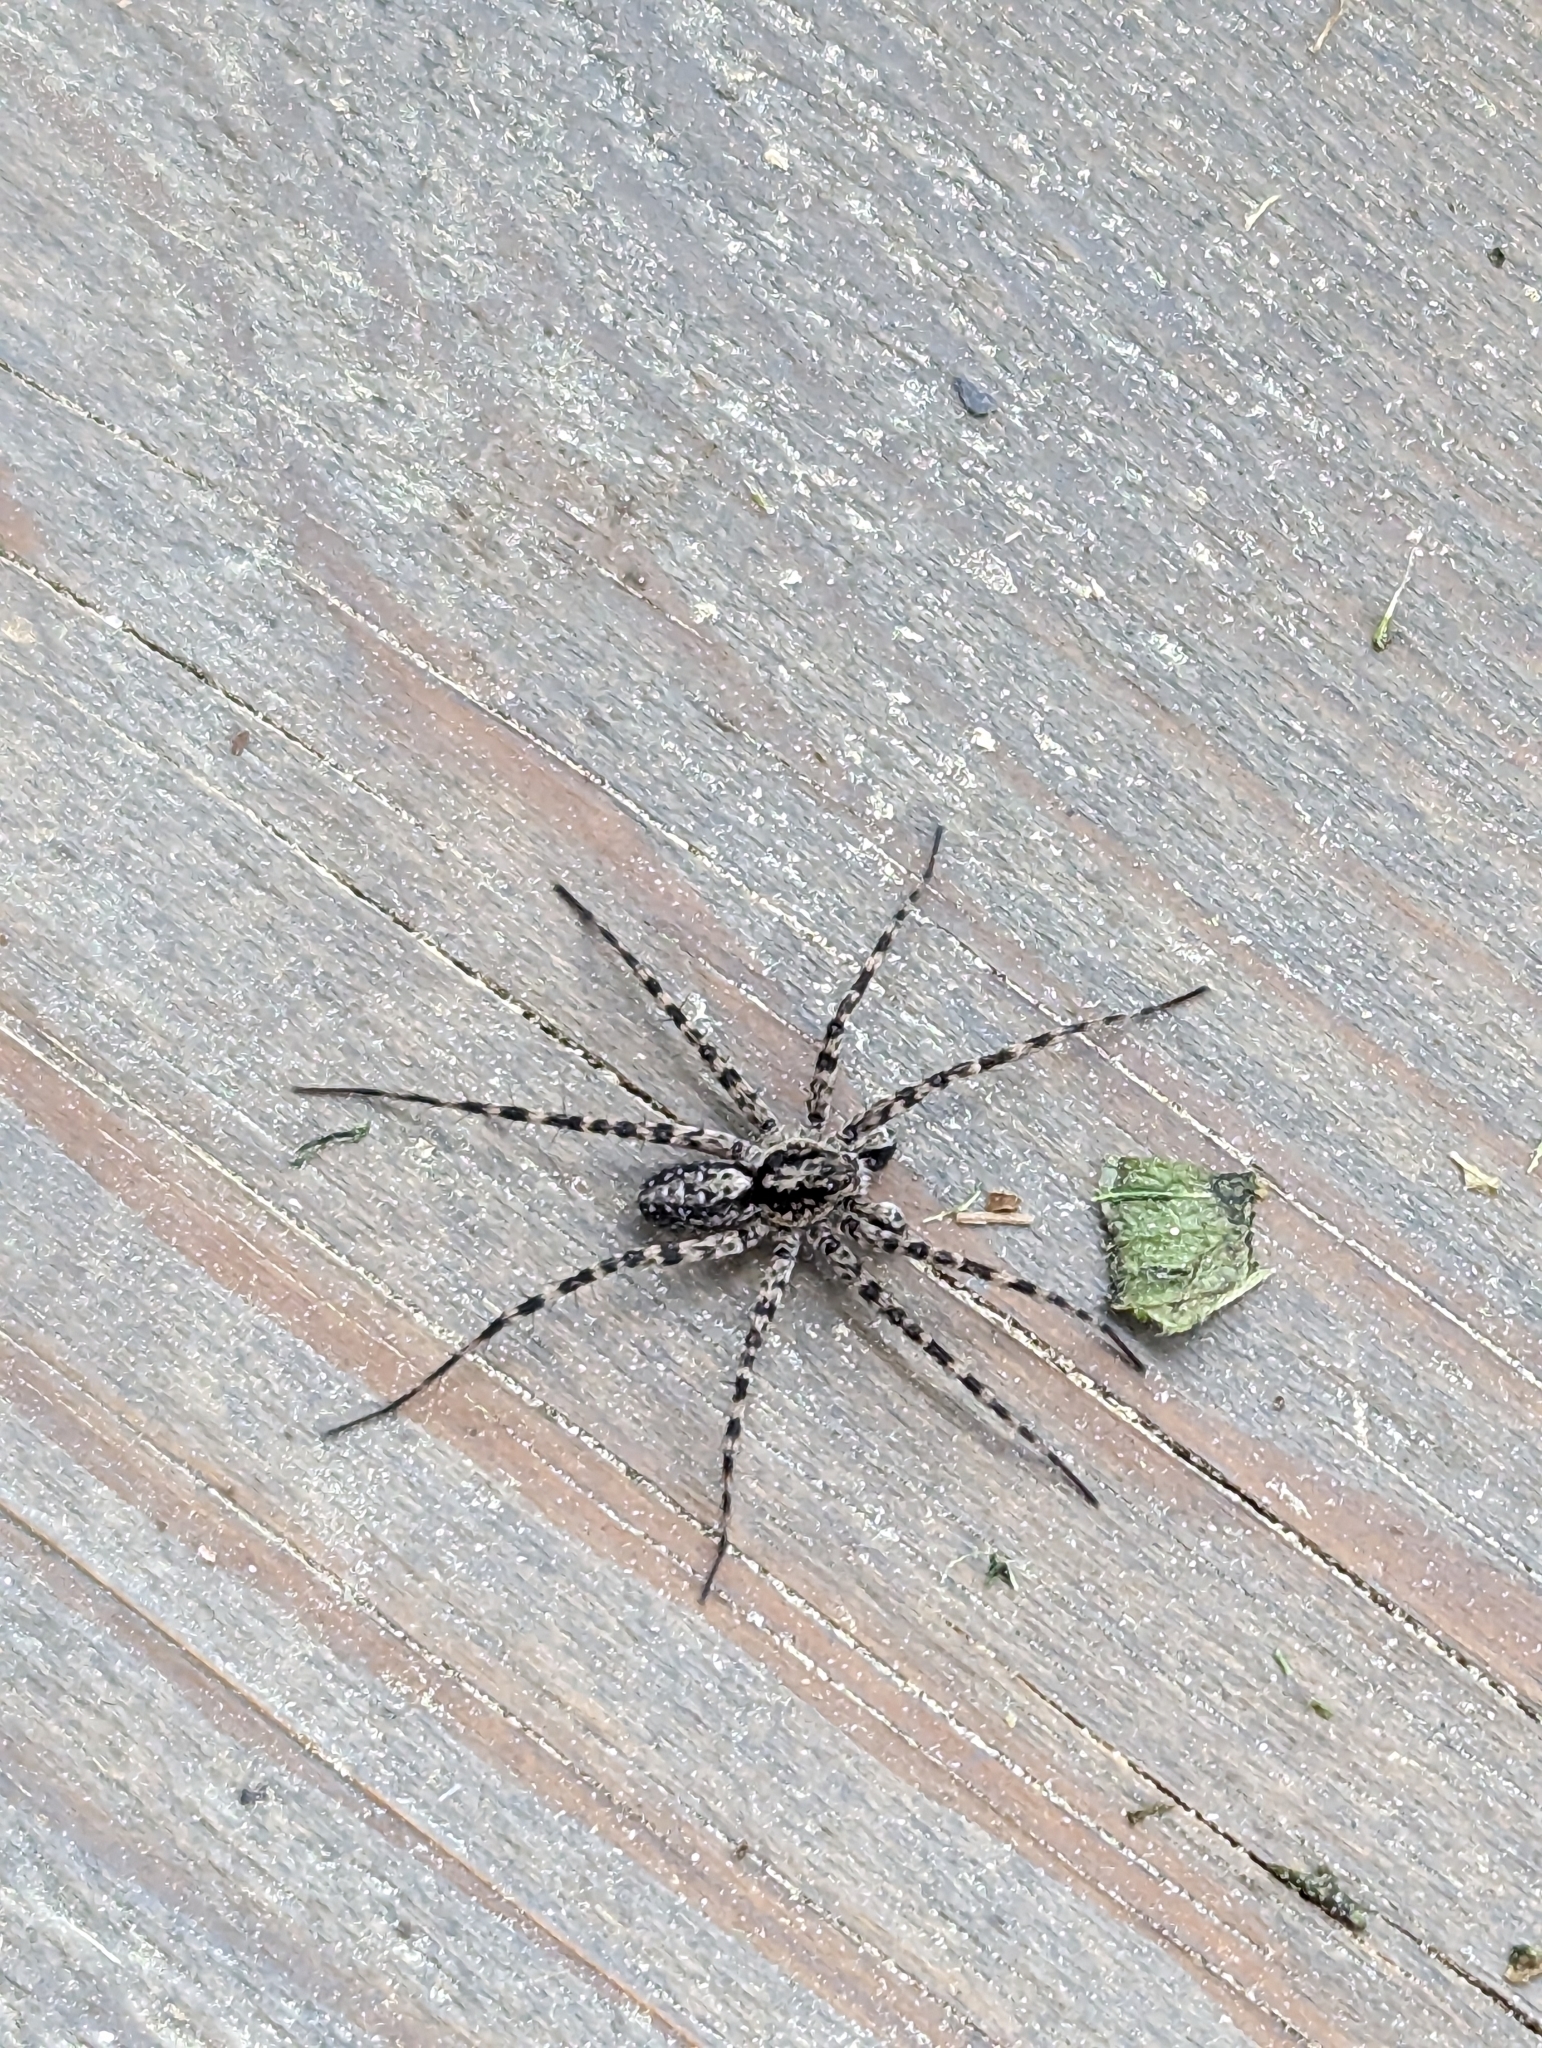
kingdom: Animalia
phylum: Arthropoda
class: Arachnida
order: Araneae
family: Lycosidae
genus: Acantholycosa
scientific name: Acantholycosa lignaria
